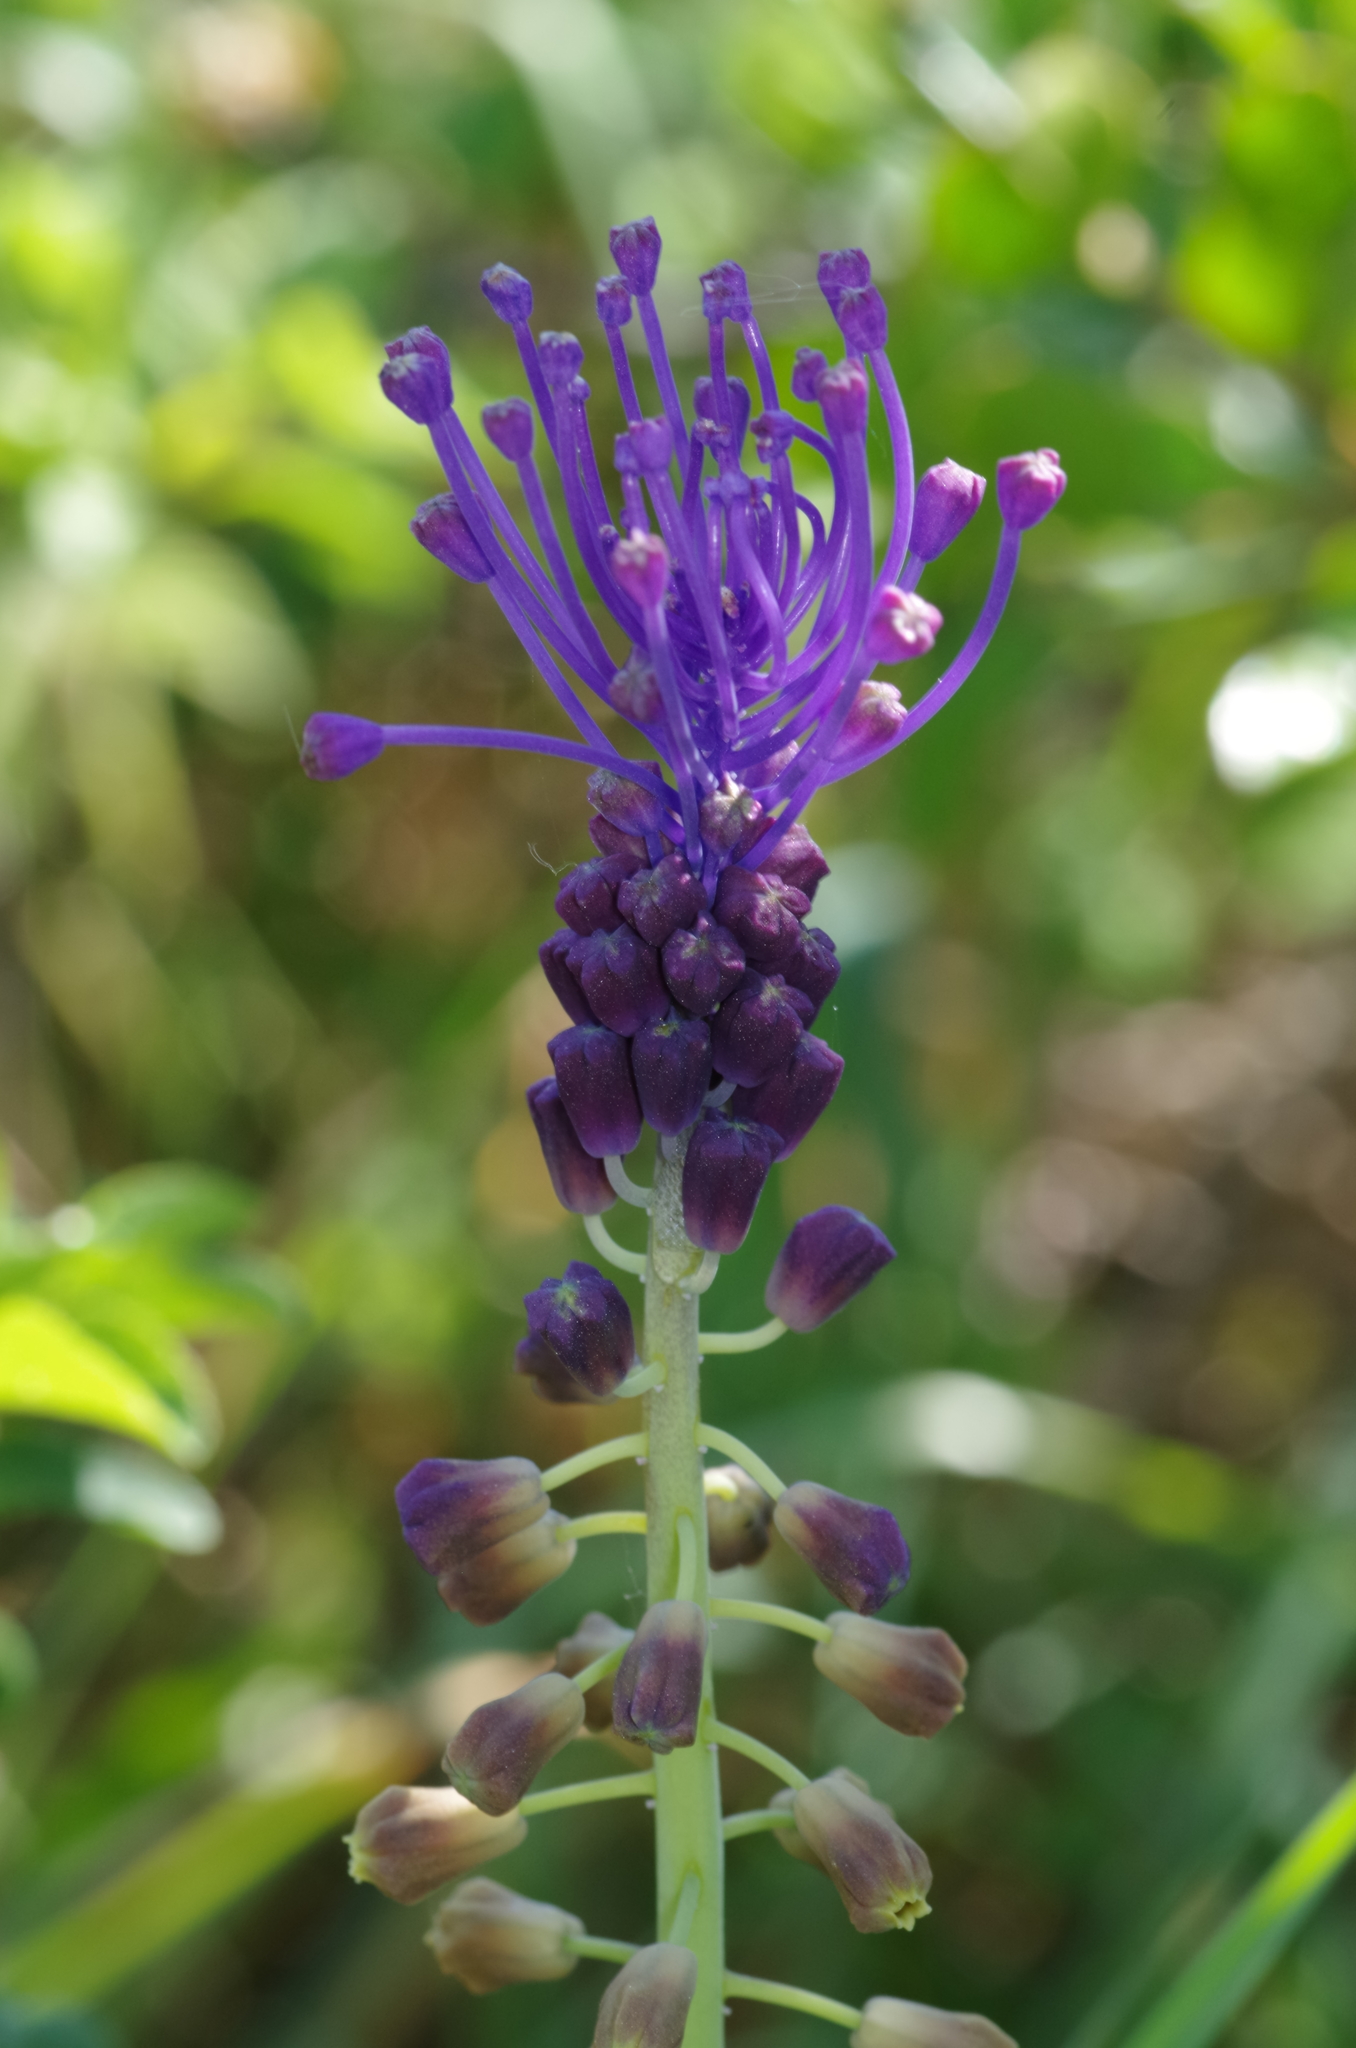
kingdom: Plantae
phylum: Tracheophyta
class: Liliopsida
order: Asparagales
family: Asparagaceae
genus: Muscari
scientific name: Muscari comosum
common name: Tassel hyacinth
